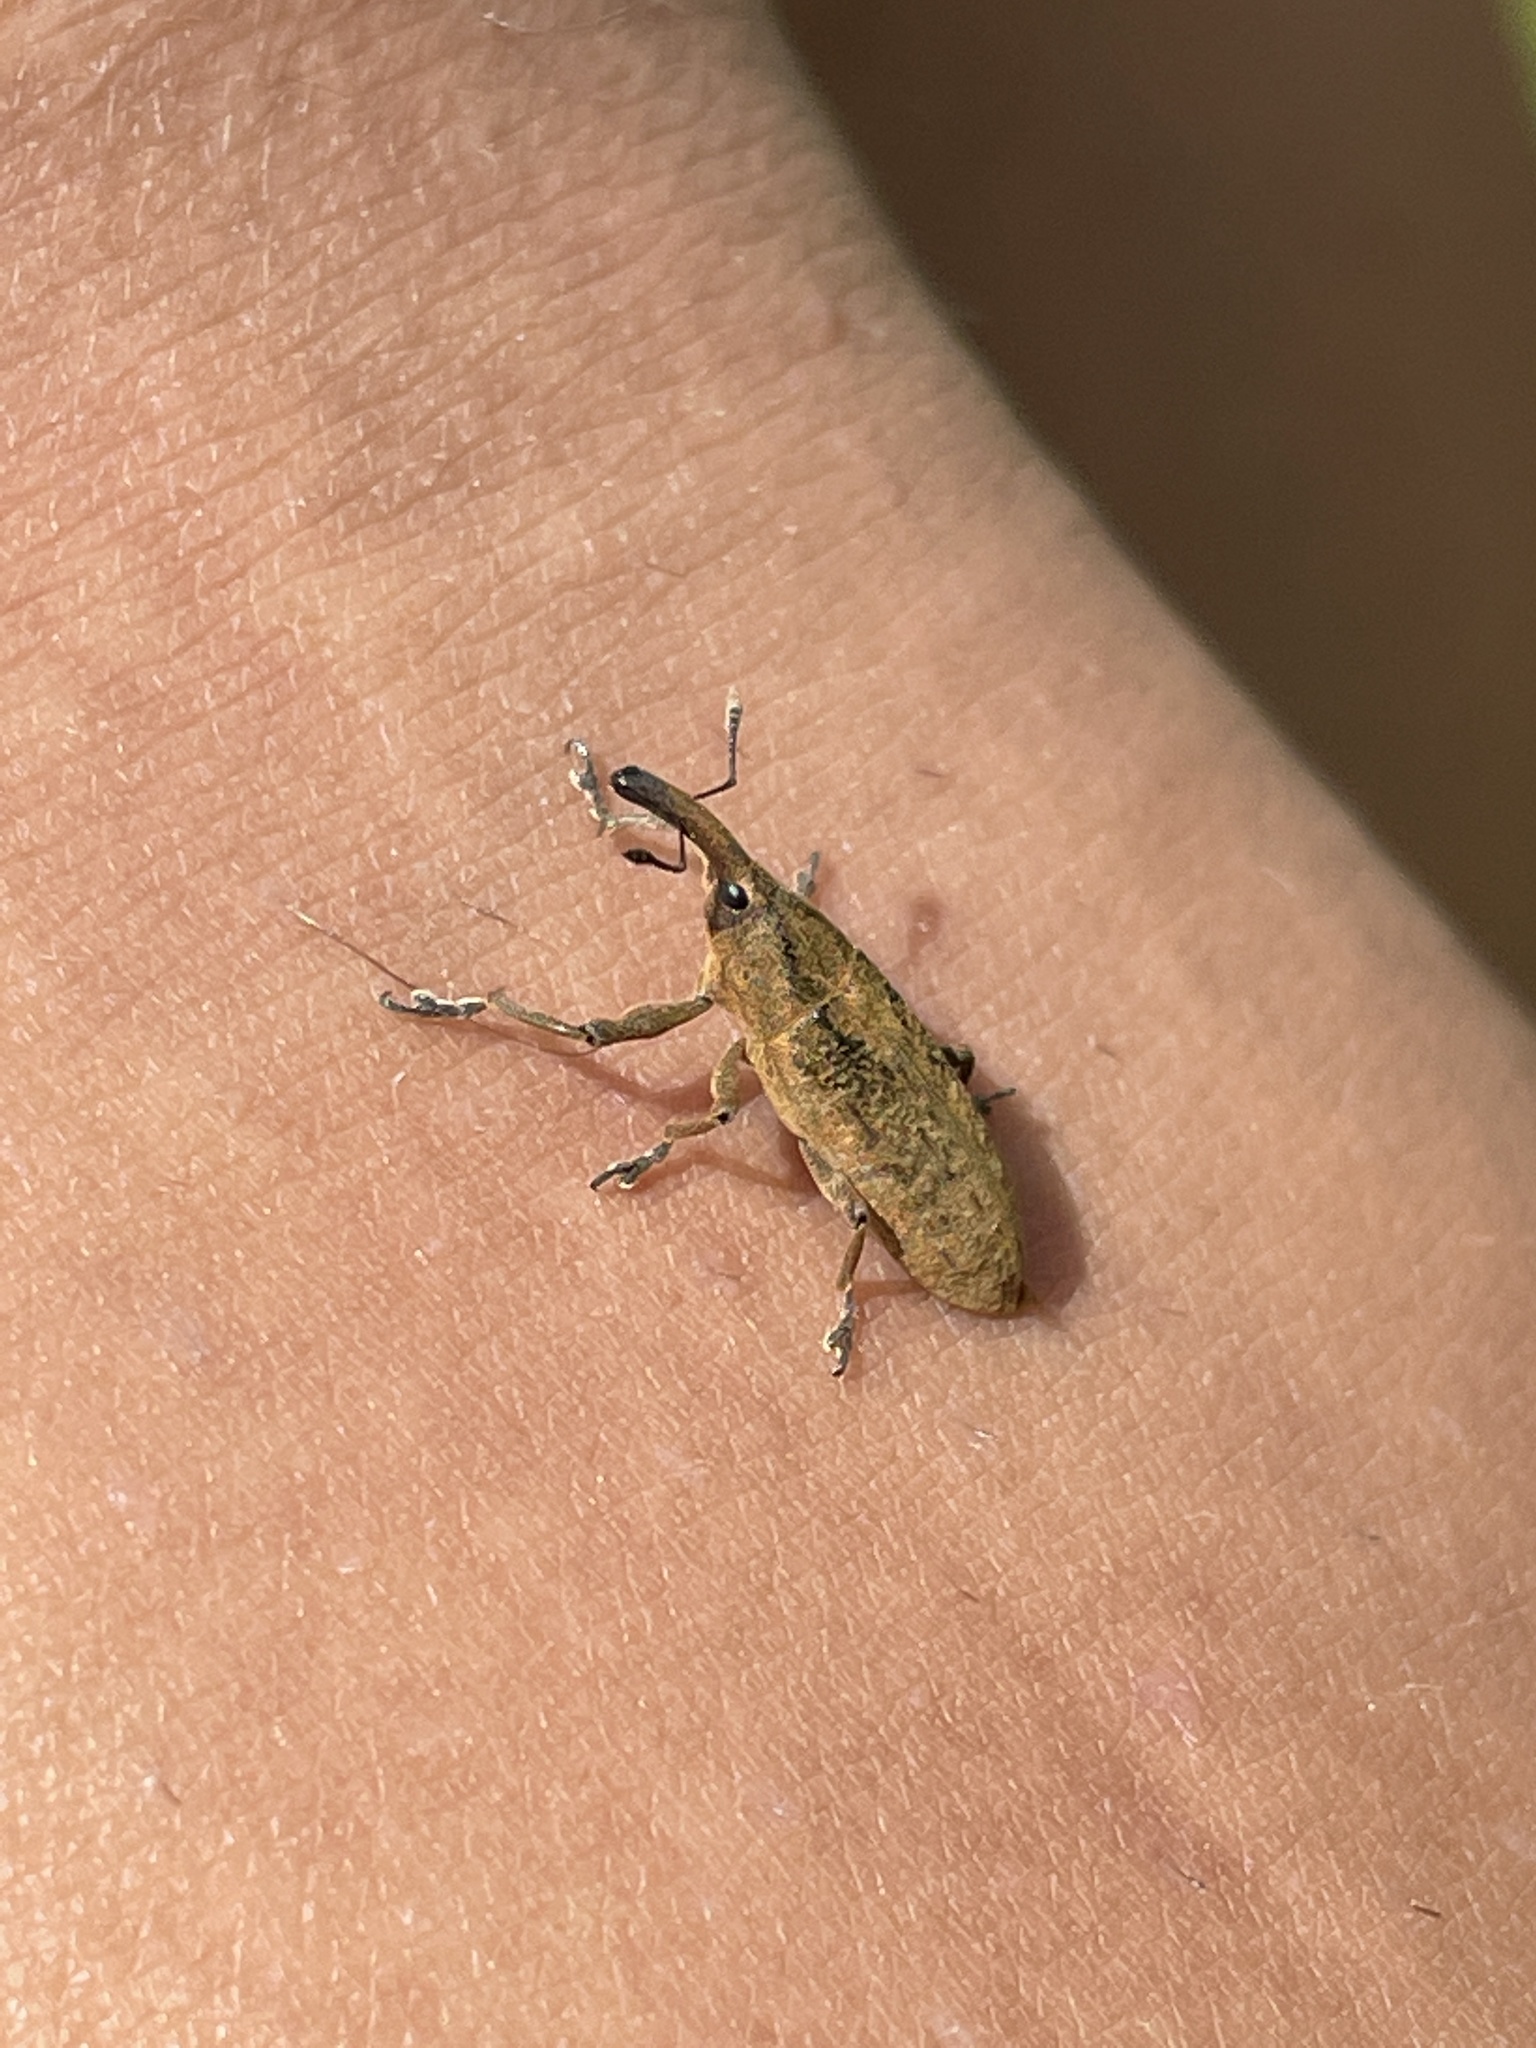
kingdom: Animalia
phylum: Arthropoda
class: Insecta
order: Coleoptera
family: Curculionidae
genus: Lixus
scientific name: Lixus concavus
